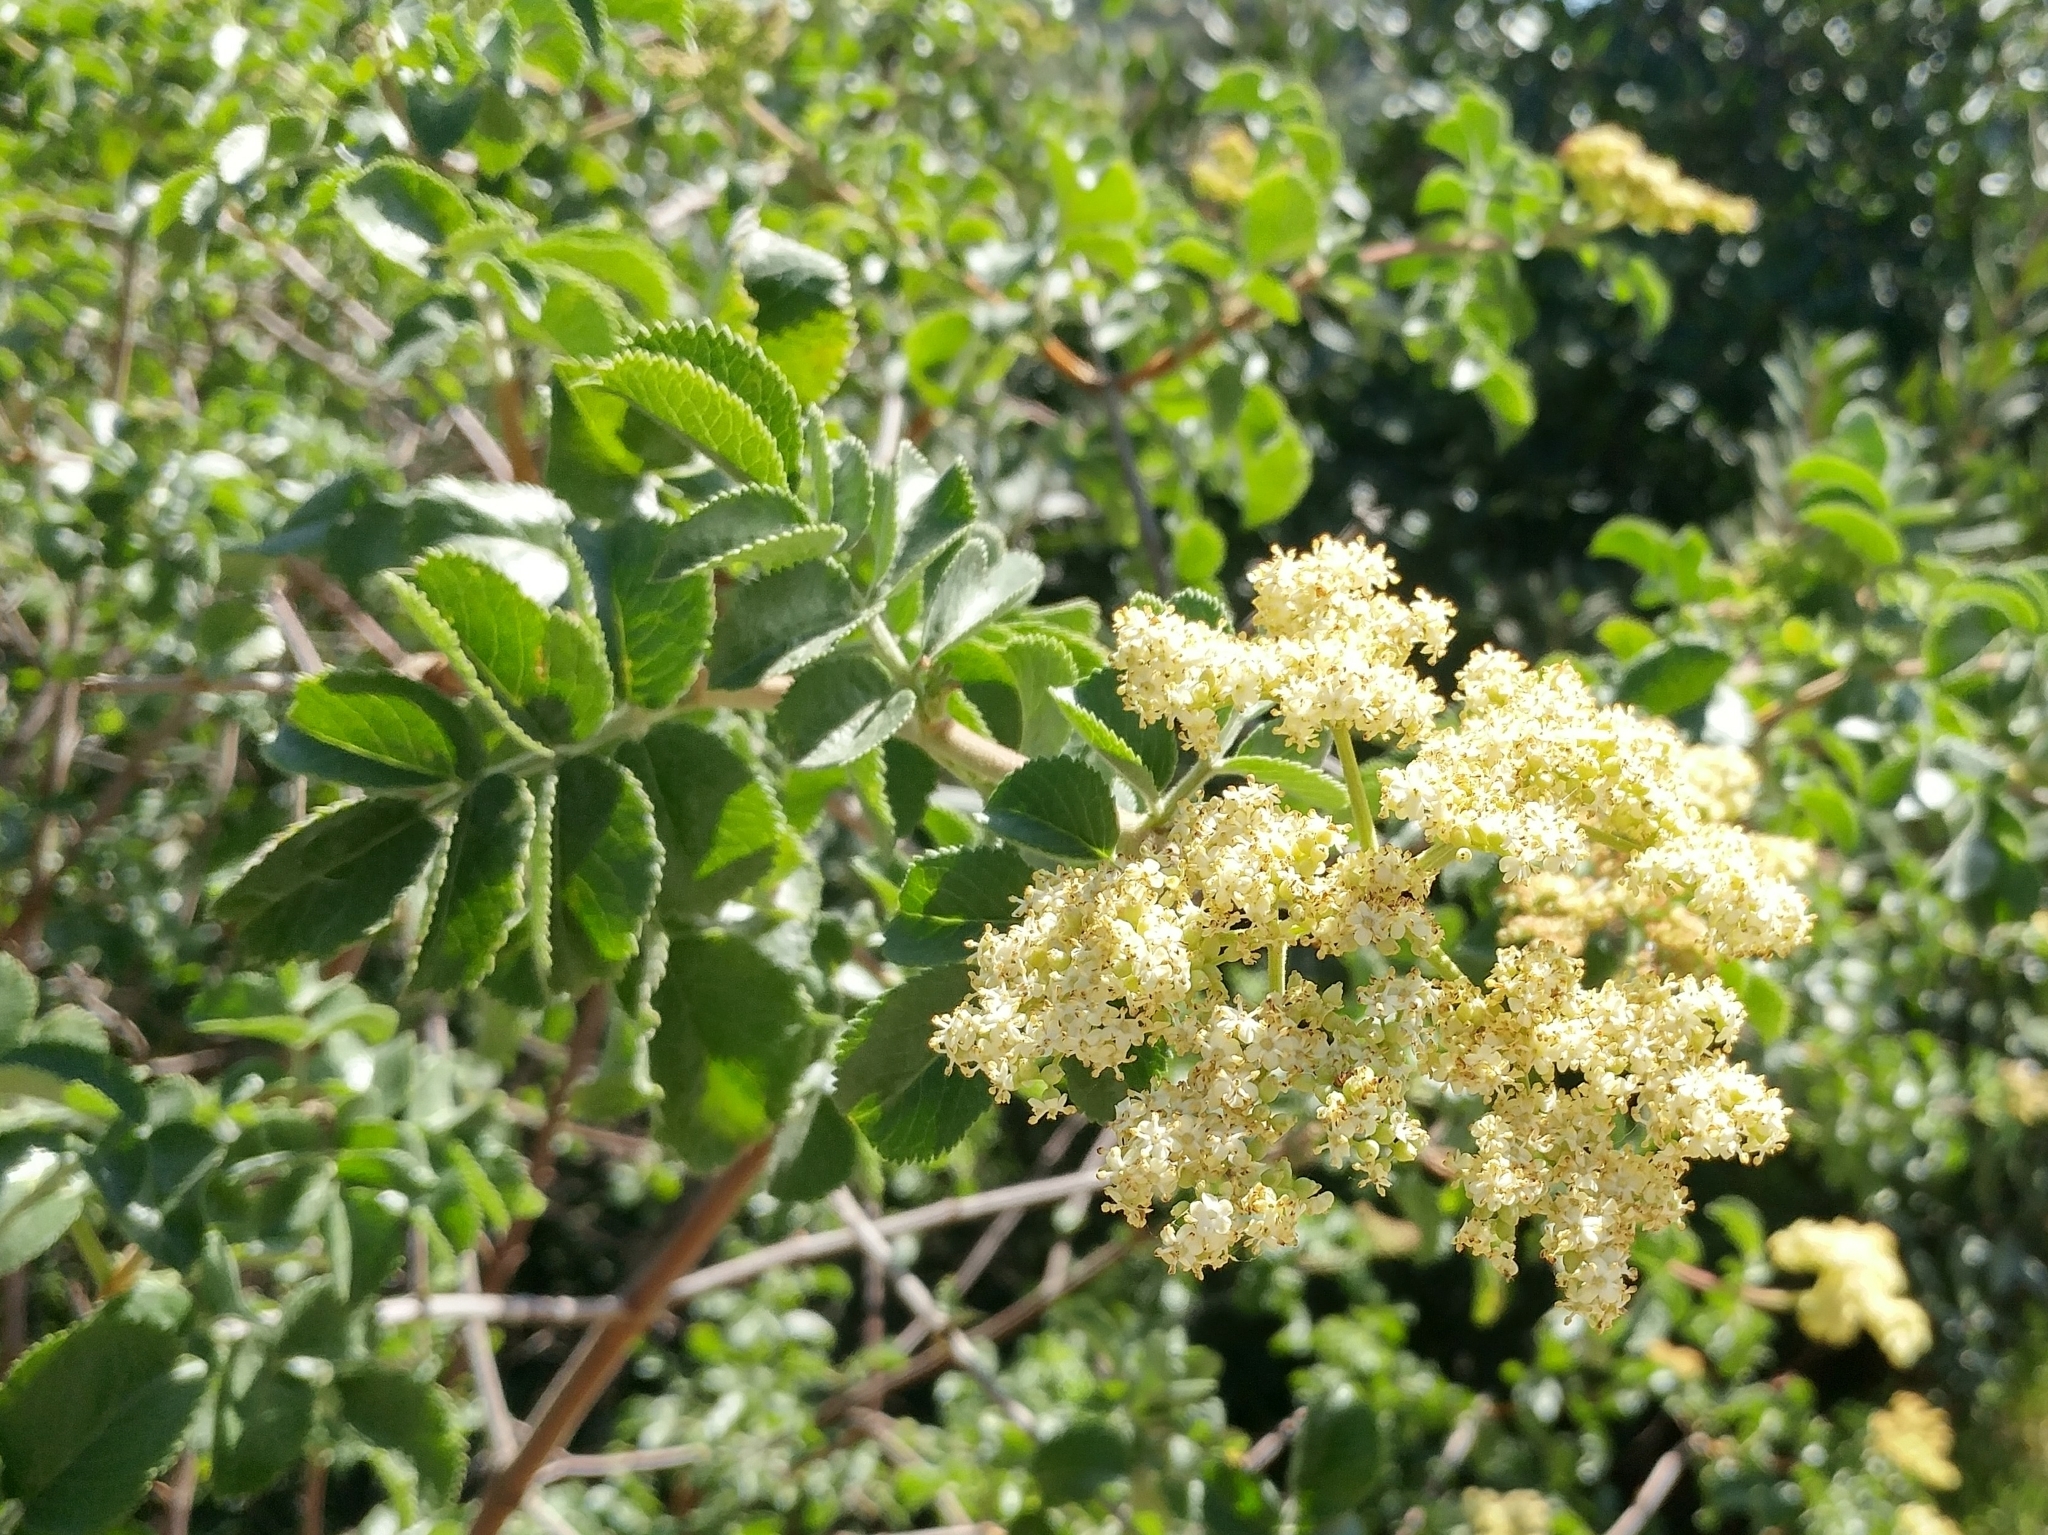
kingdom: Plantae
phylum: Tracheophyta
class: Magnoliopsida
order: Dipsacales
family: Viburnaceae
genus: Sambucus
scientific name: Sambucus cerulea
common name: Blue elder
